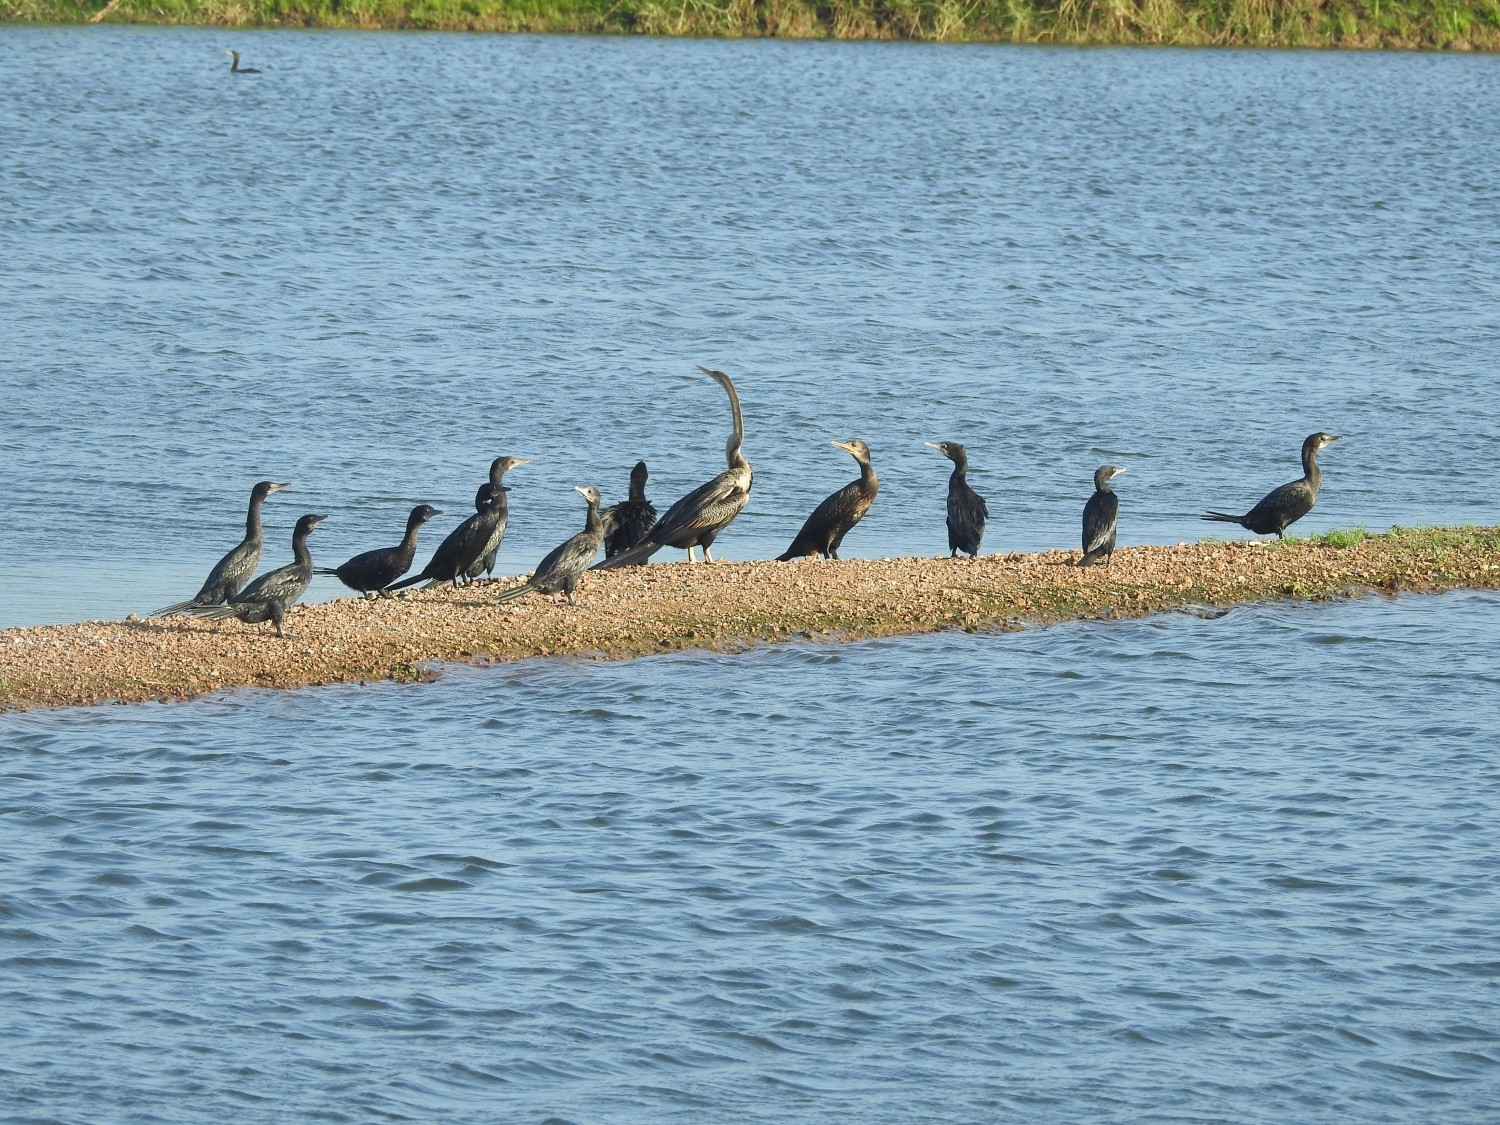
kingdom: Animalia
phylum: Chordata
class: Aves
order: Suliformes
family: Anhingidae
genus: Anhinga
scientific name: Anhinga melanogaster
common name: Oriental darter
